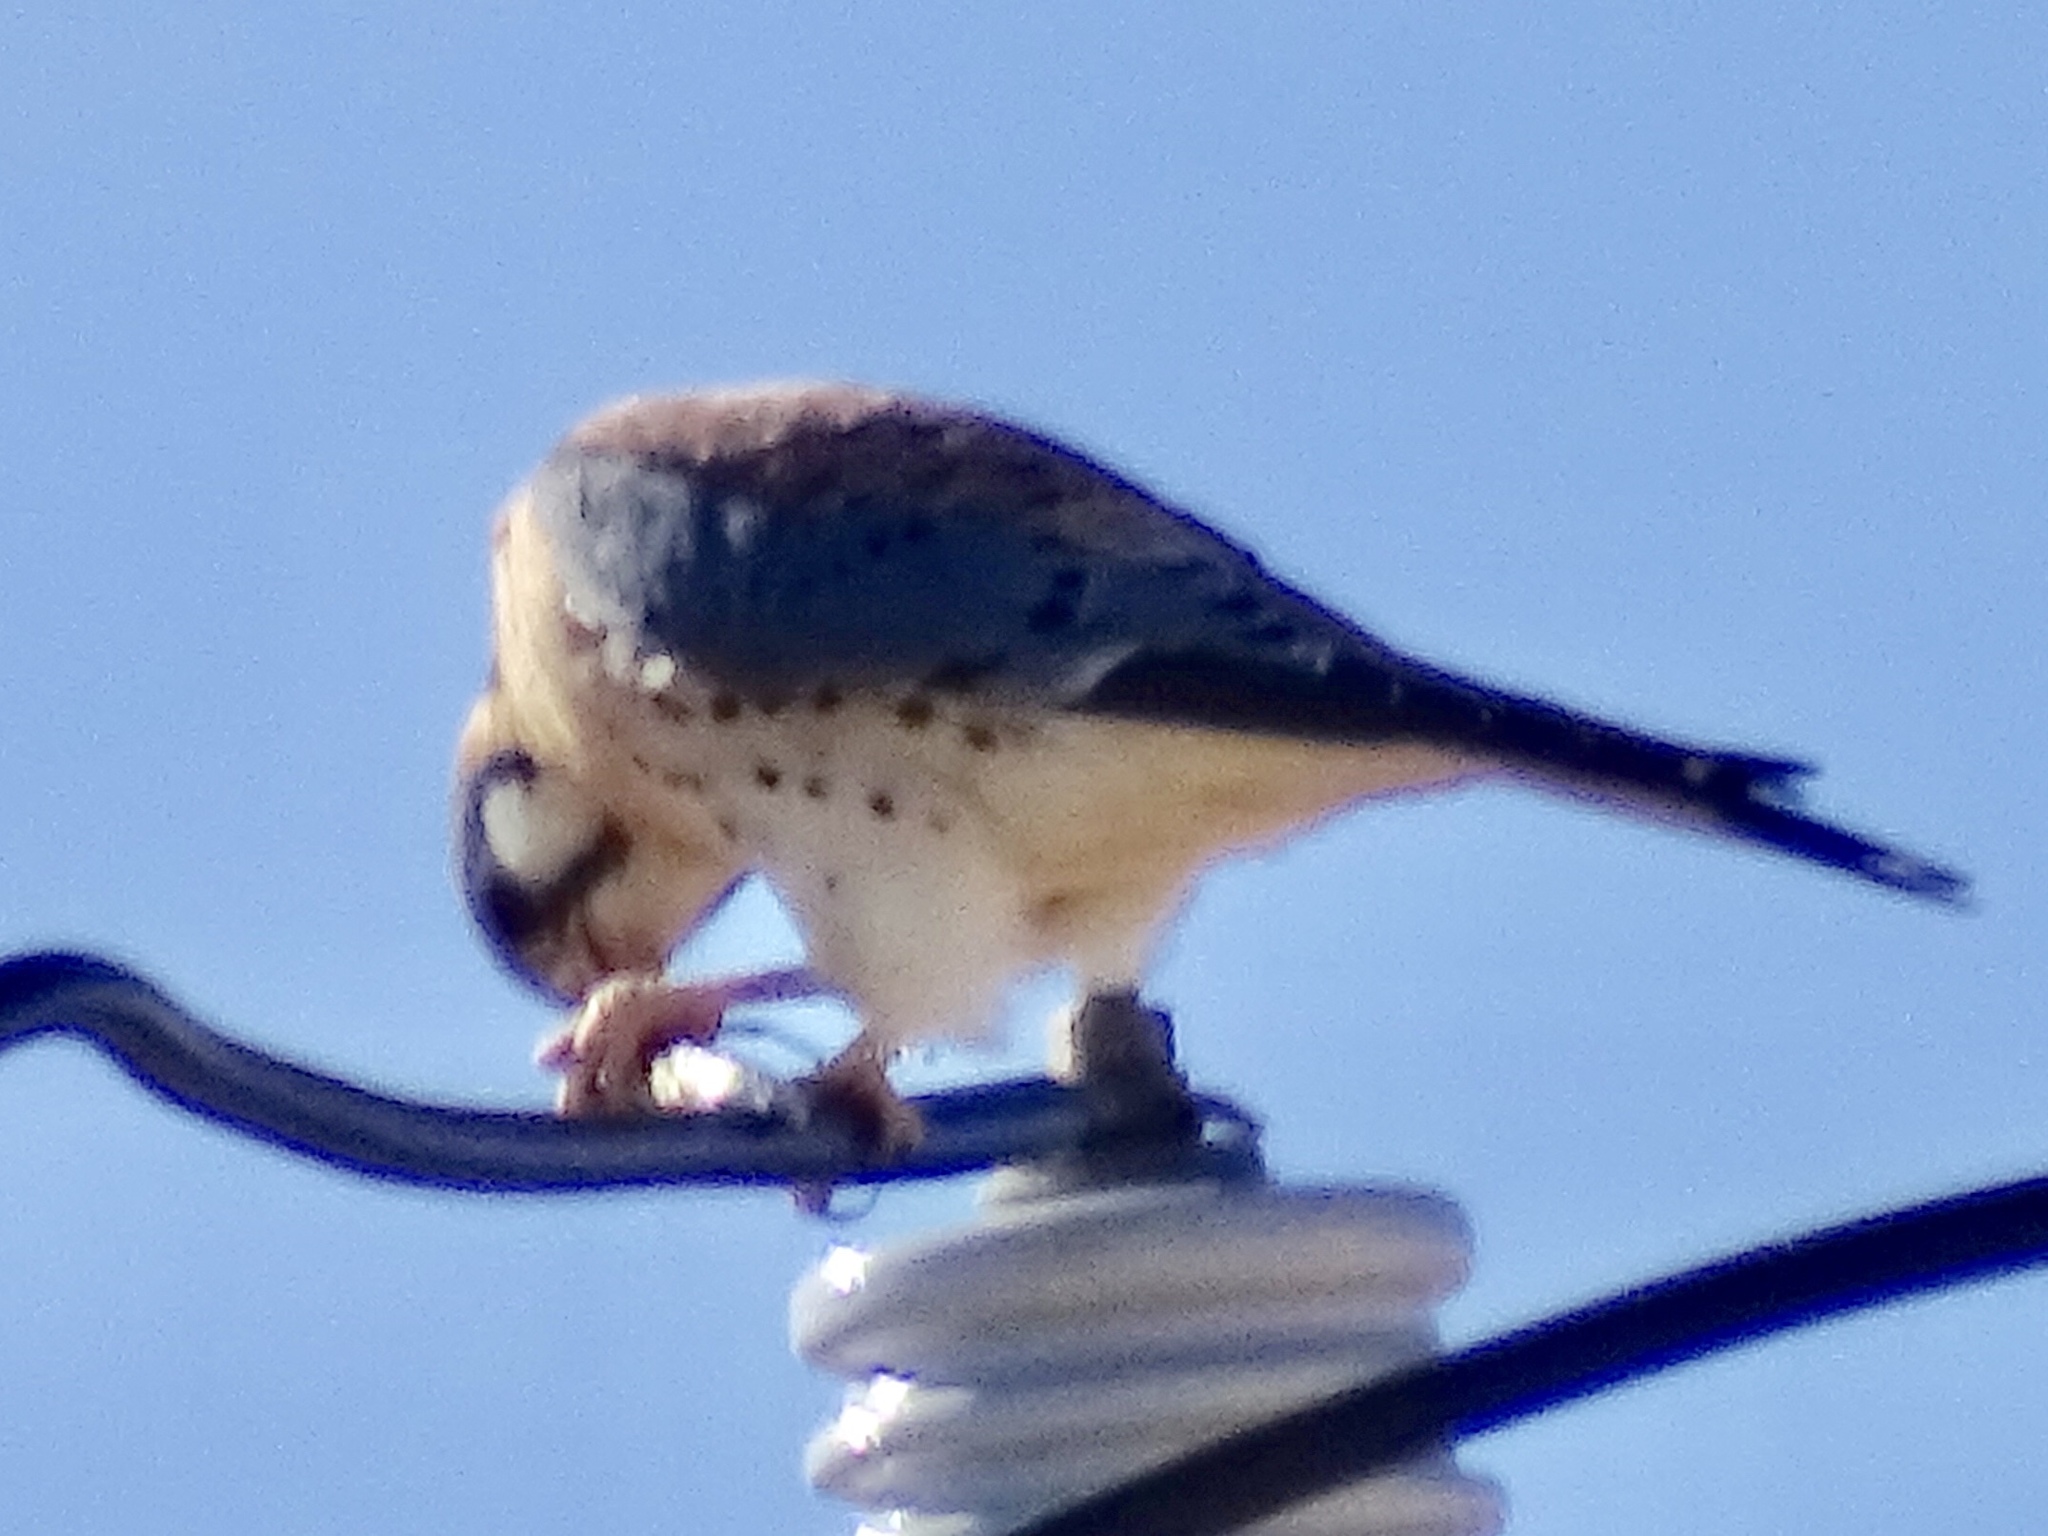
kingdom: Animalia
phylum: Chordata
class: Aves
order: Falconiformes
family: Falconidae
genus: Falco
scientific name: Falco sparverius
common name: American kestrel
